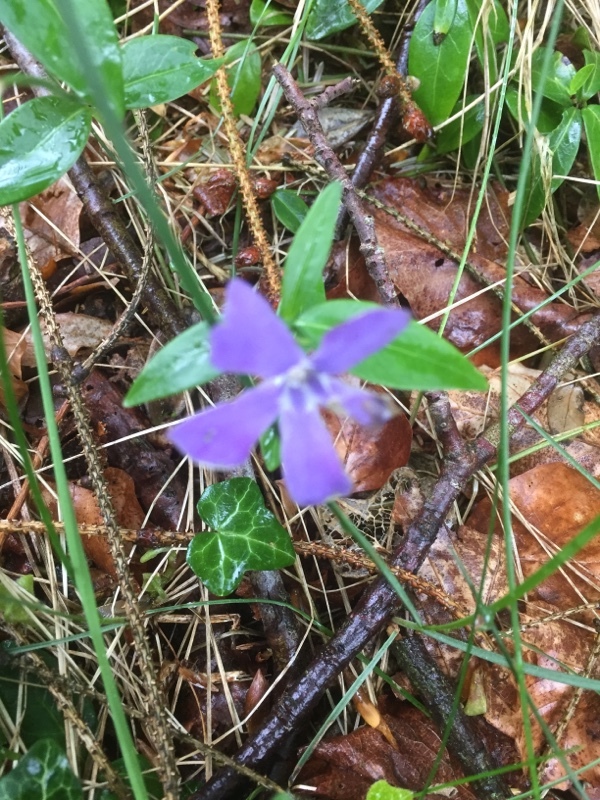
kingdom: Plantae
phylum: Tracheophyta
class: Magnoliopsida
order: Gentianales
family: Apocynaceae
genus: Vinca
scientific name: Vinca minor
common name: Lesser periwinkle
